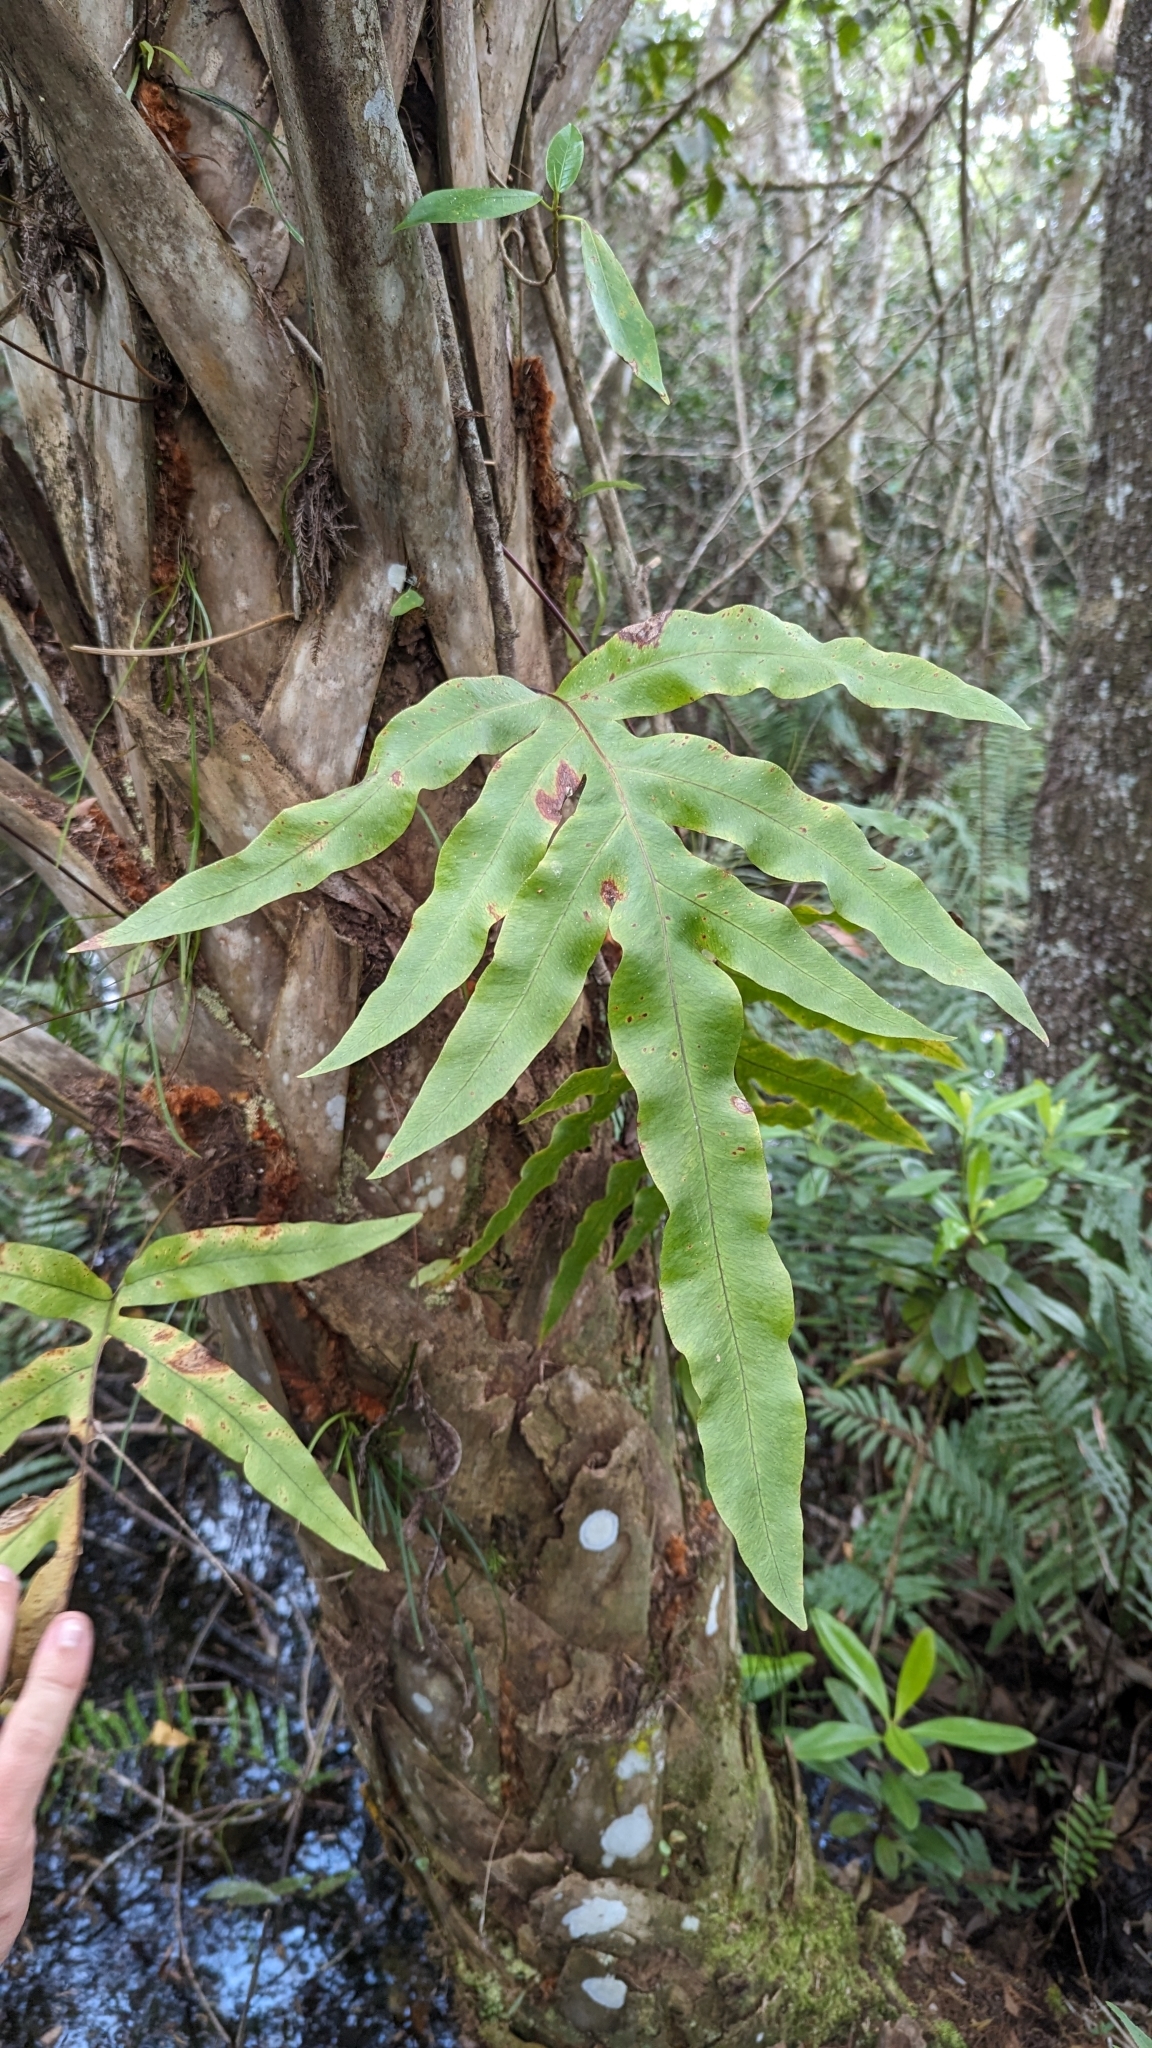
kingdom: Plantae
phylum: Tracheophyta
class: Polypodiopsida
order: Polypodiales
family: Polypodiaceae
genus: Phlebodium
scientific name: Phlebodium aureum
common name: Gold-foot fern
